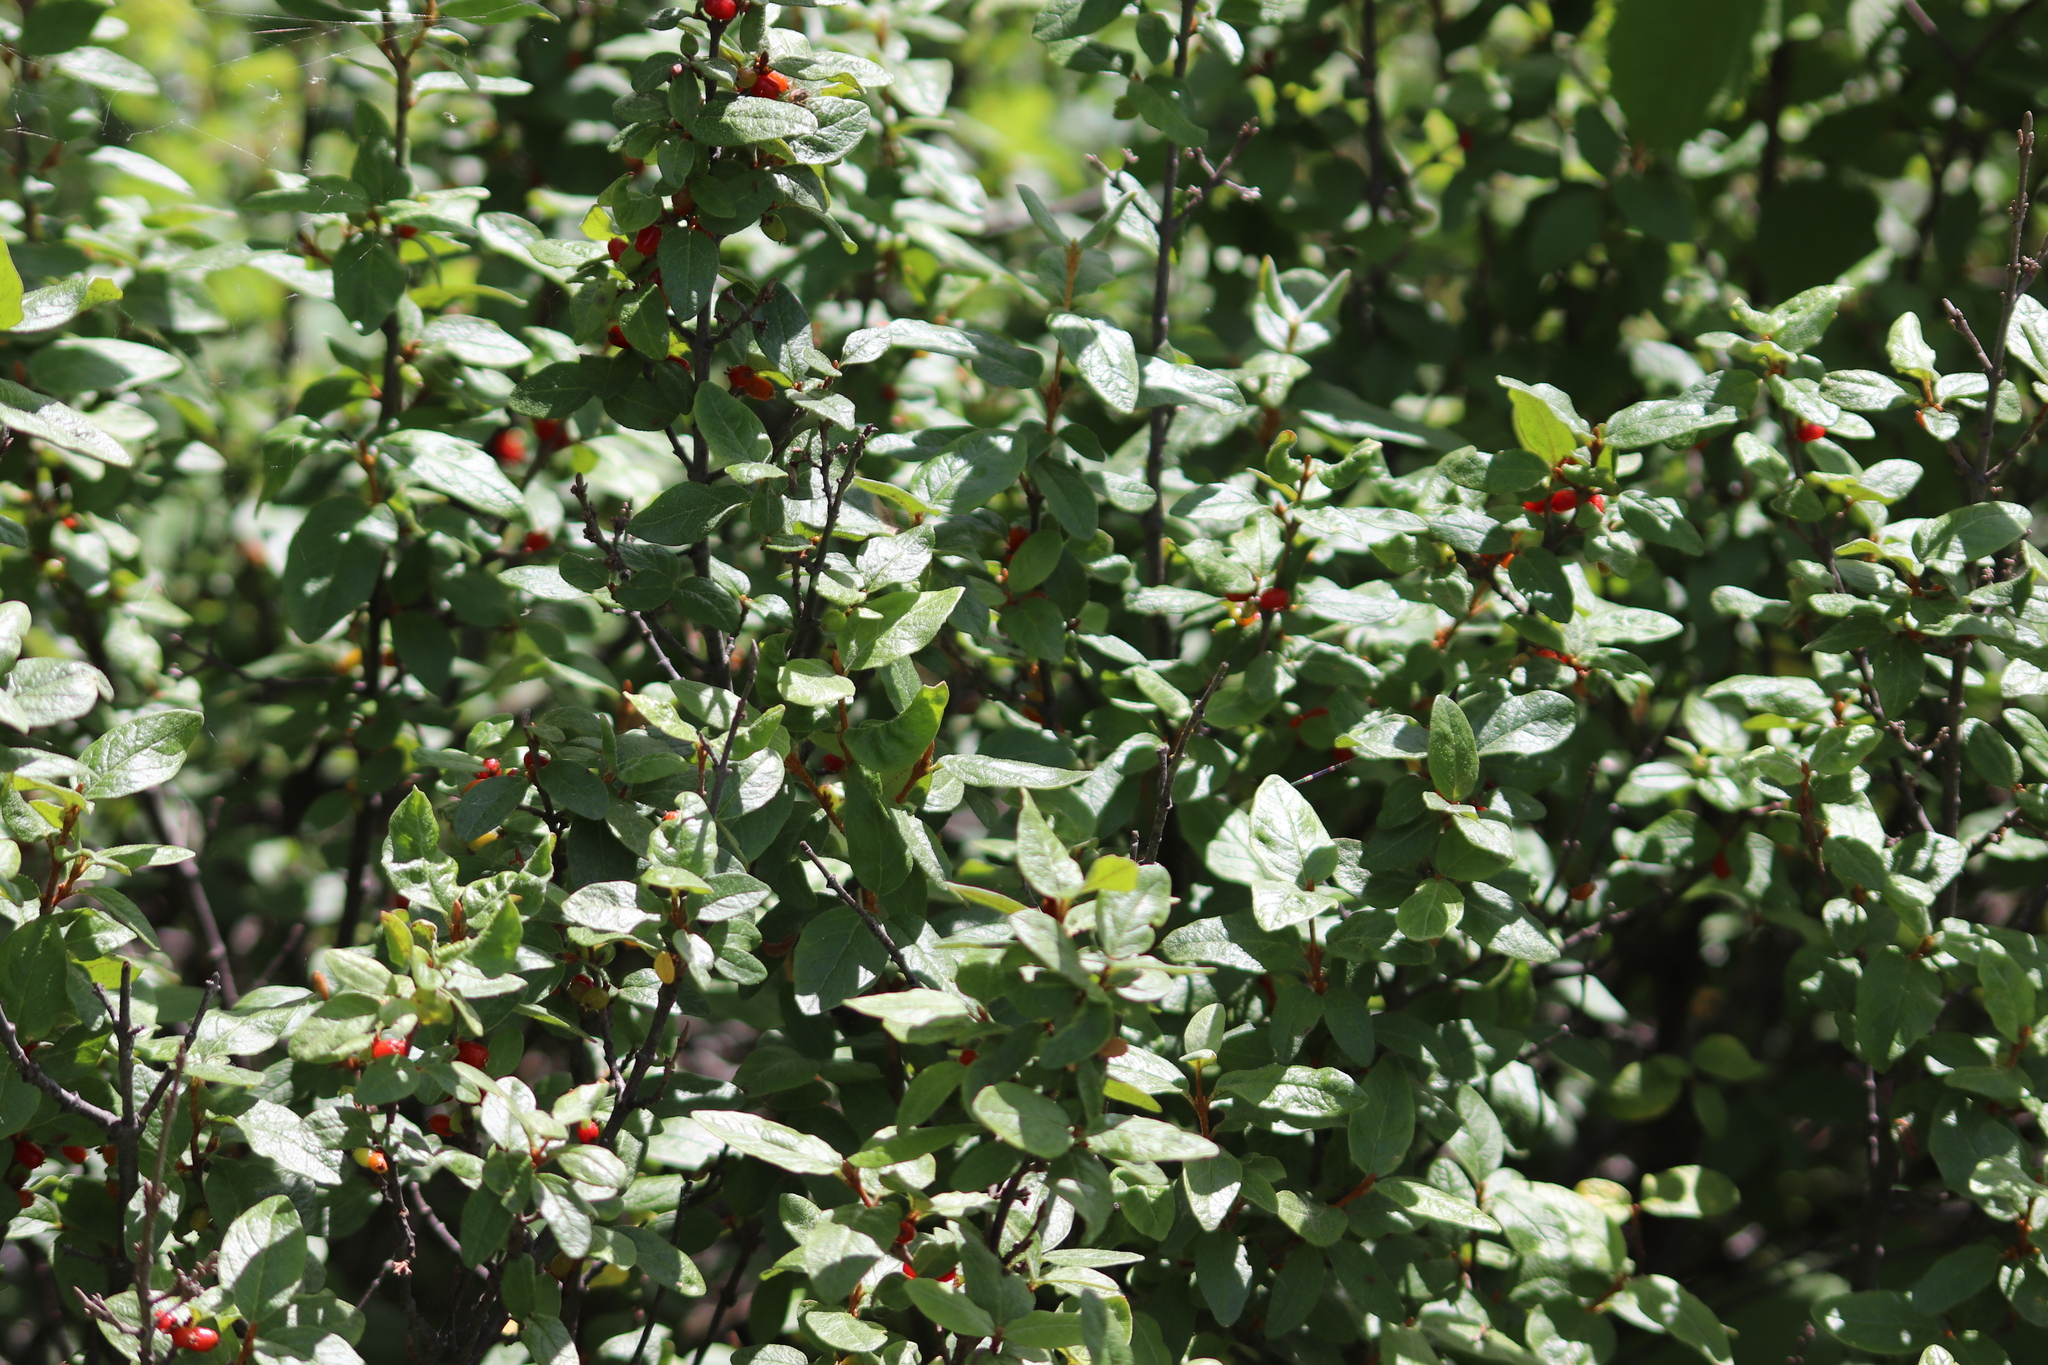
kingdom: Plantae
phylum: Tracheophyta
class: Magnoliopsida
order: Rosales
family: Elaeagnaceae
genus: Shepherdia
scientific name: Shepherdia canadensis
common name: Soapberry
